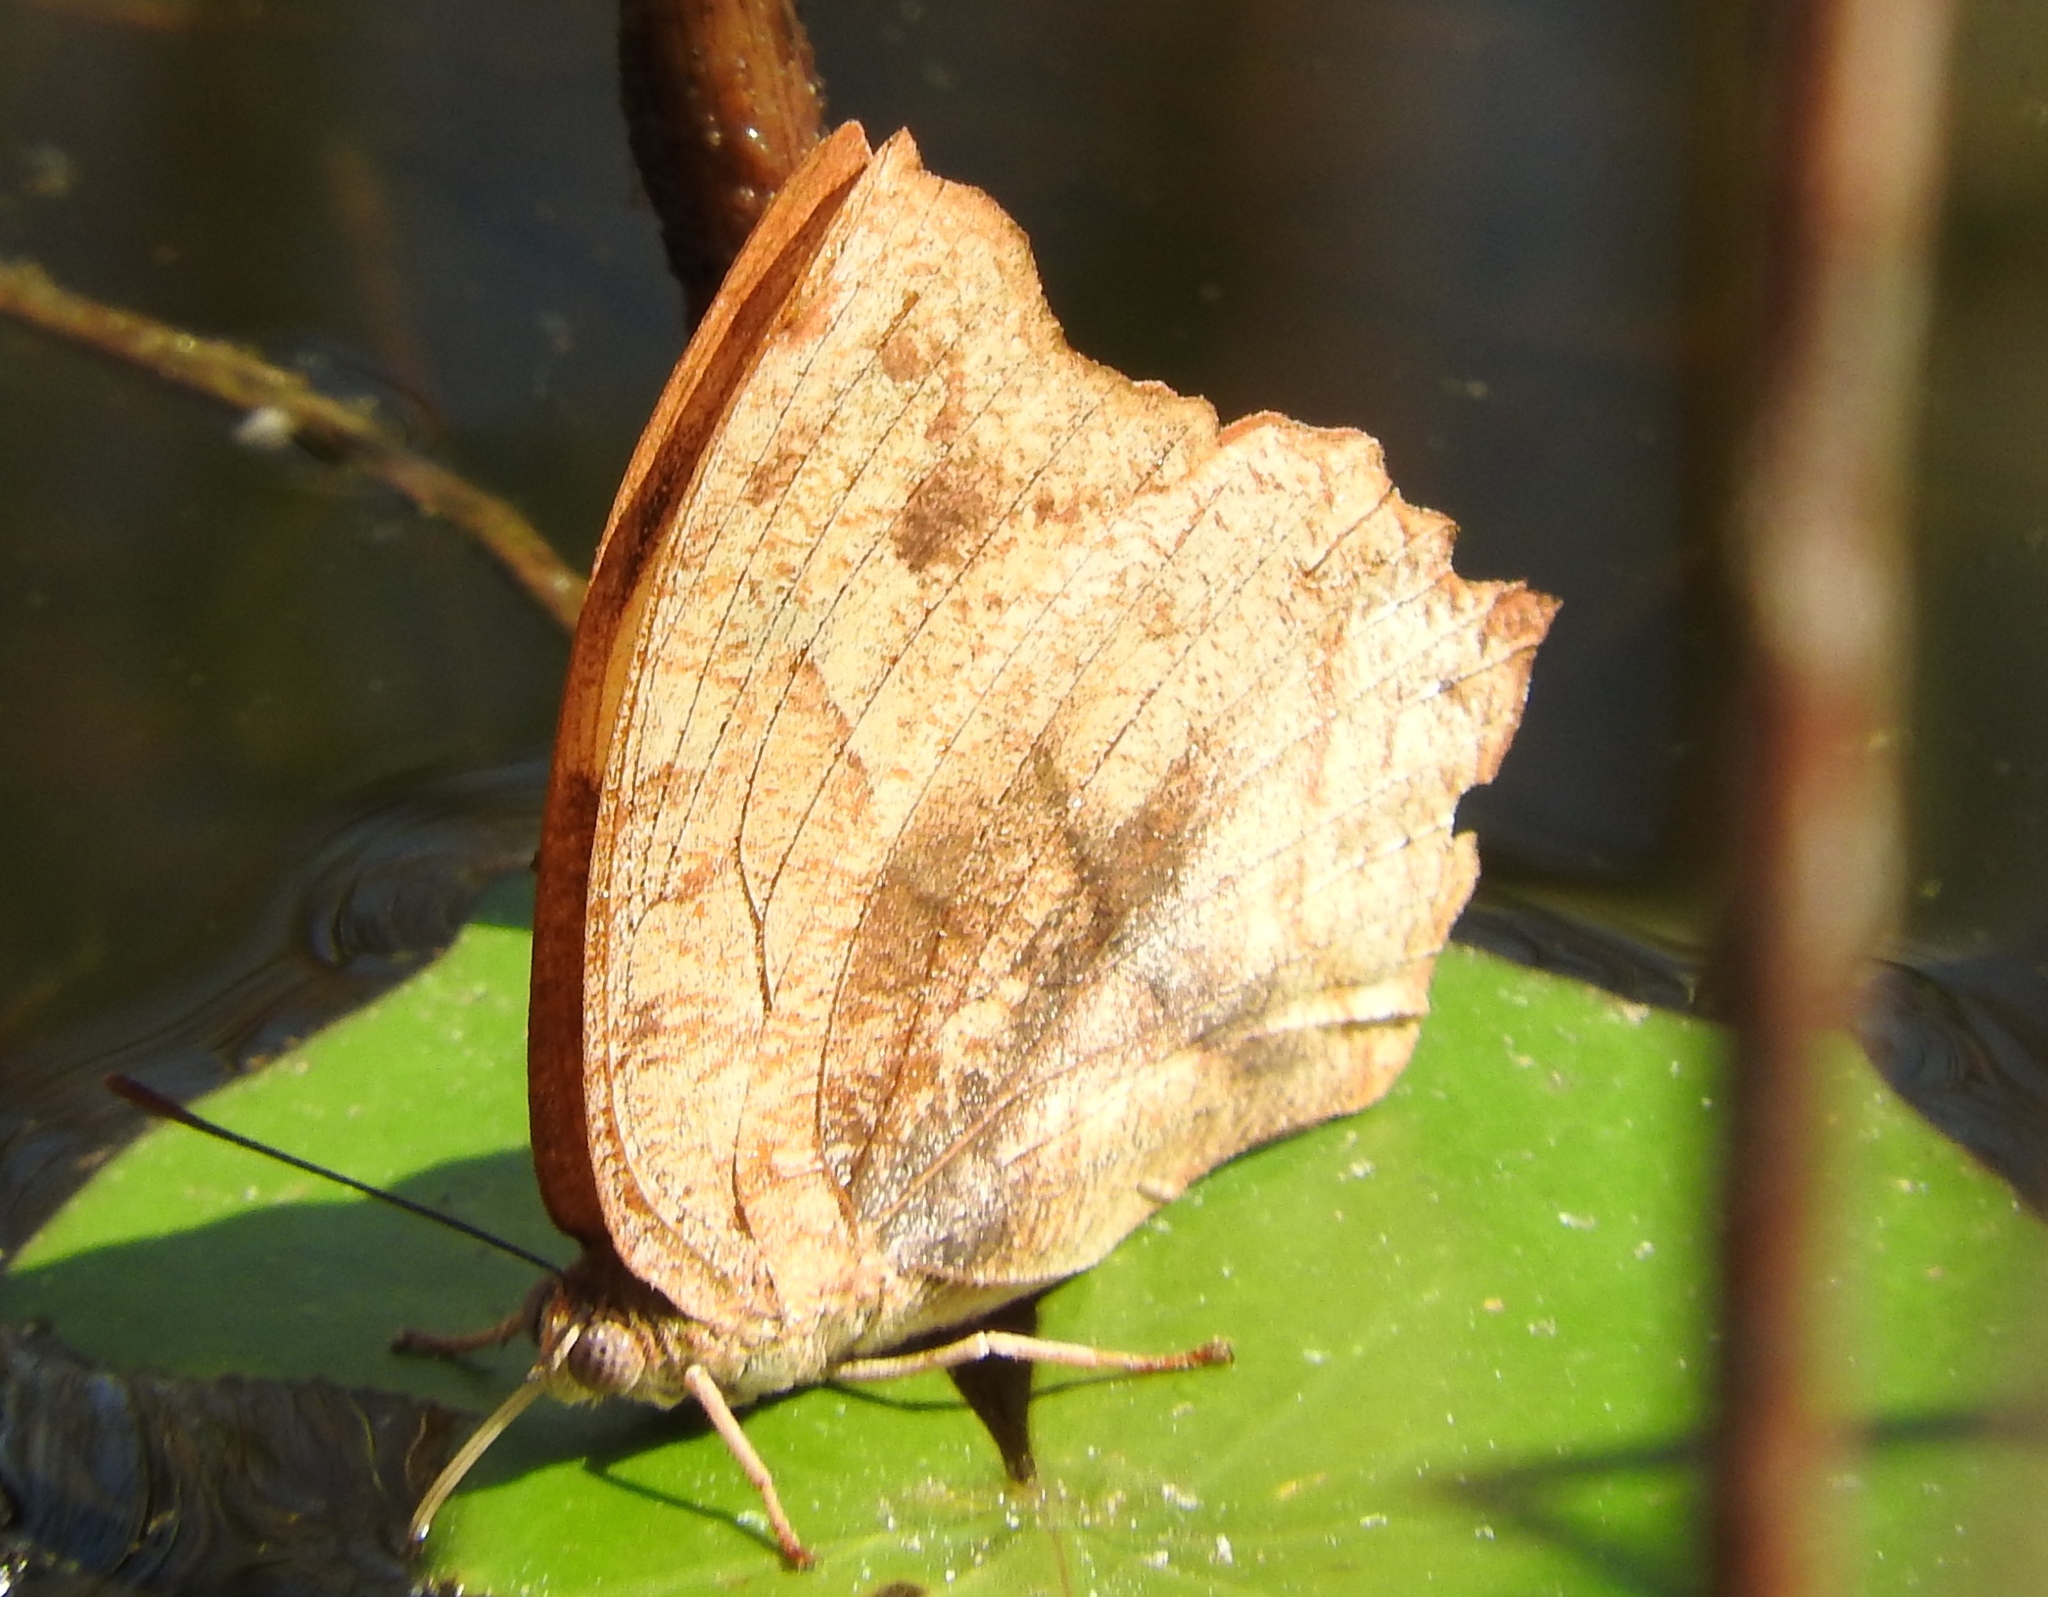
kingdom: Animalia
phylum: Arthropoda
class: Insecta
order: Lepidoptera
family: Nymphalidae
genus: Fountainea
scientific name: Fountainea
